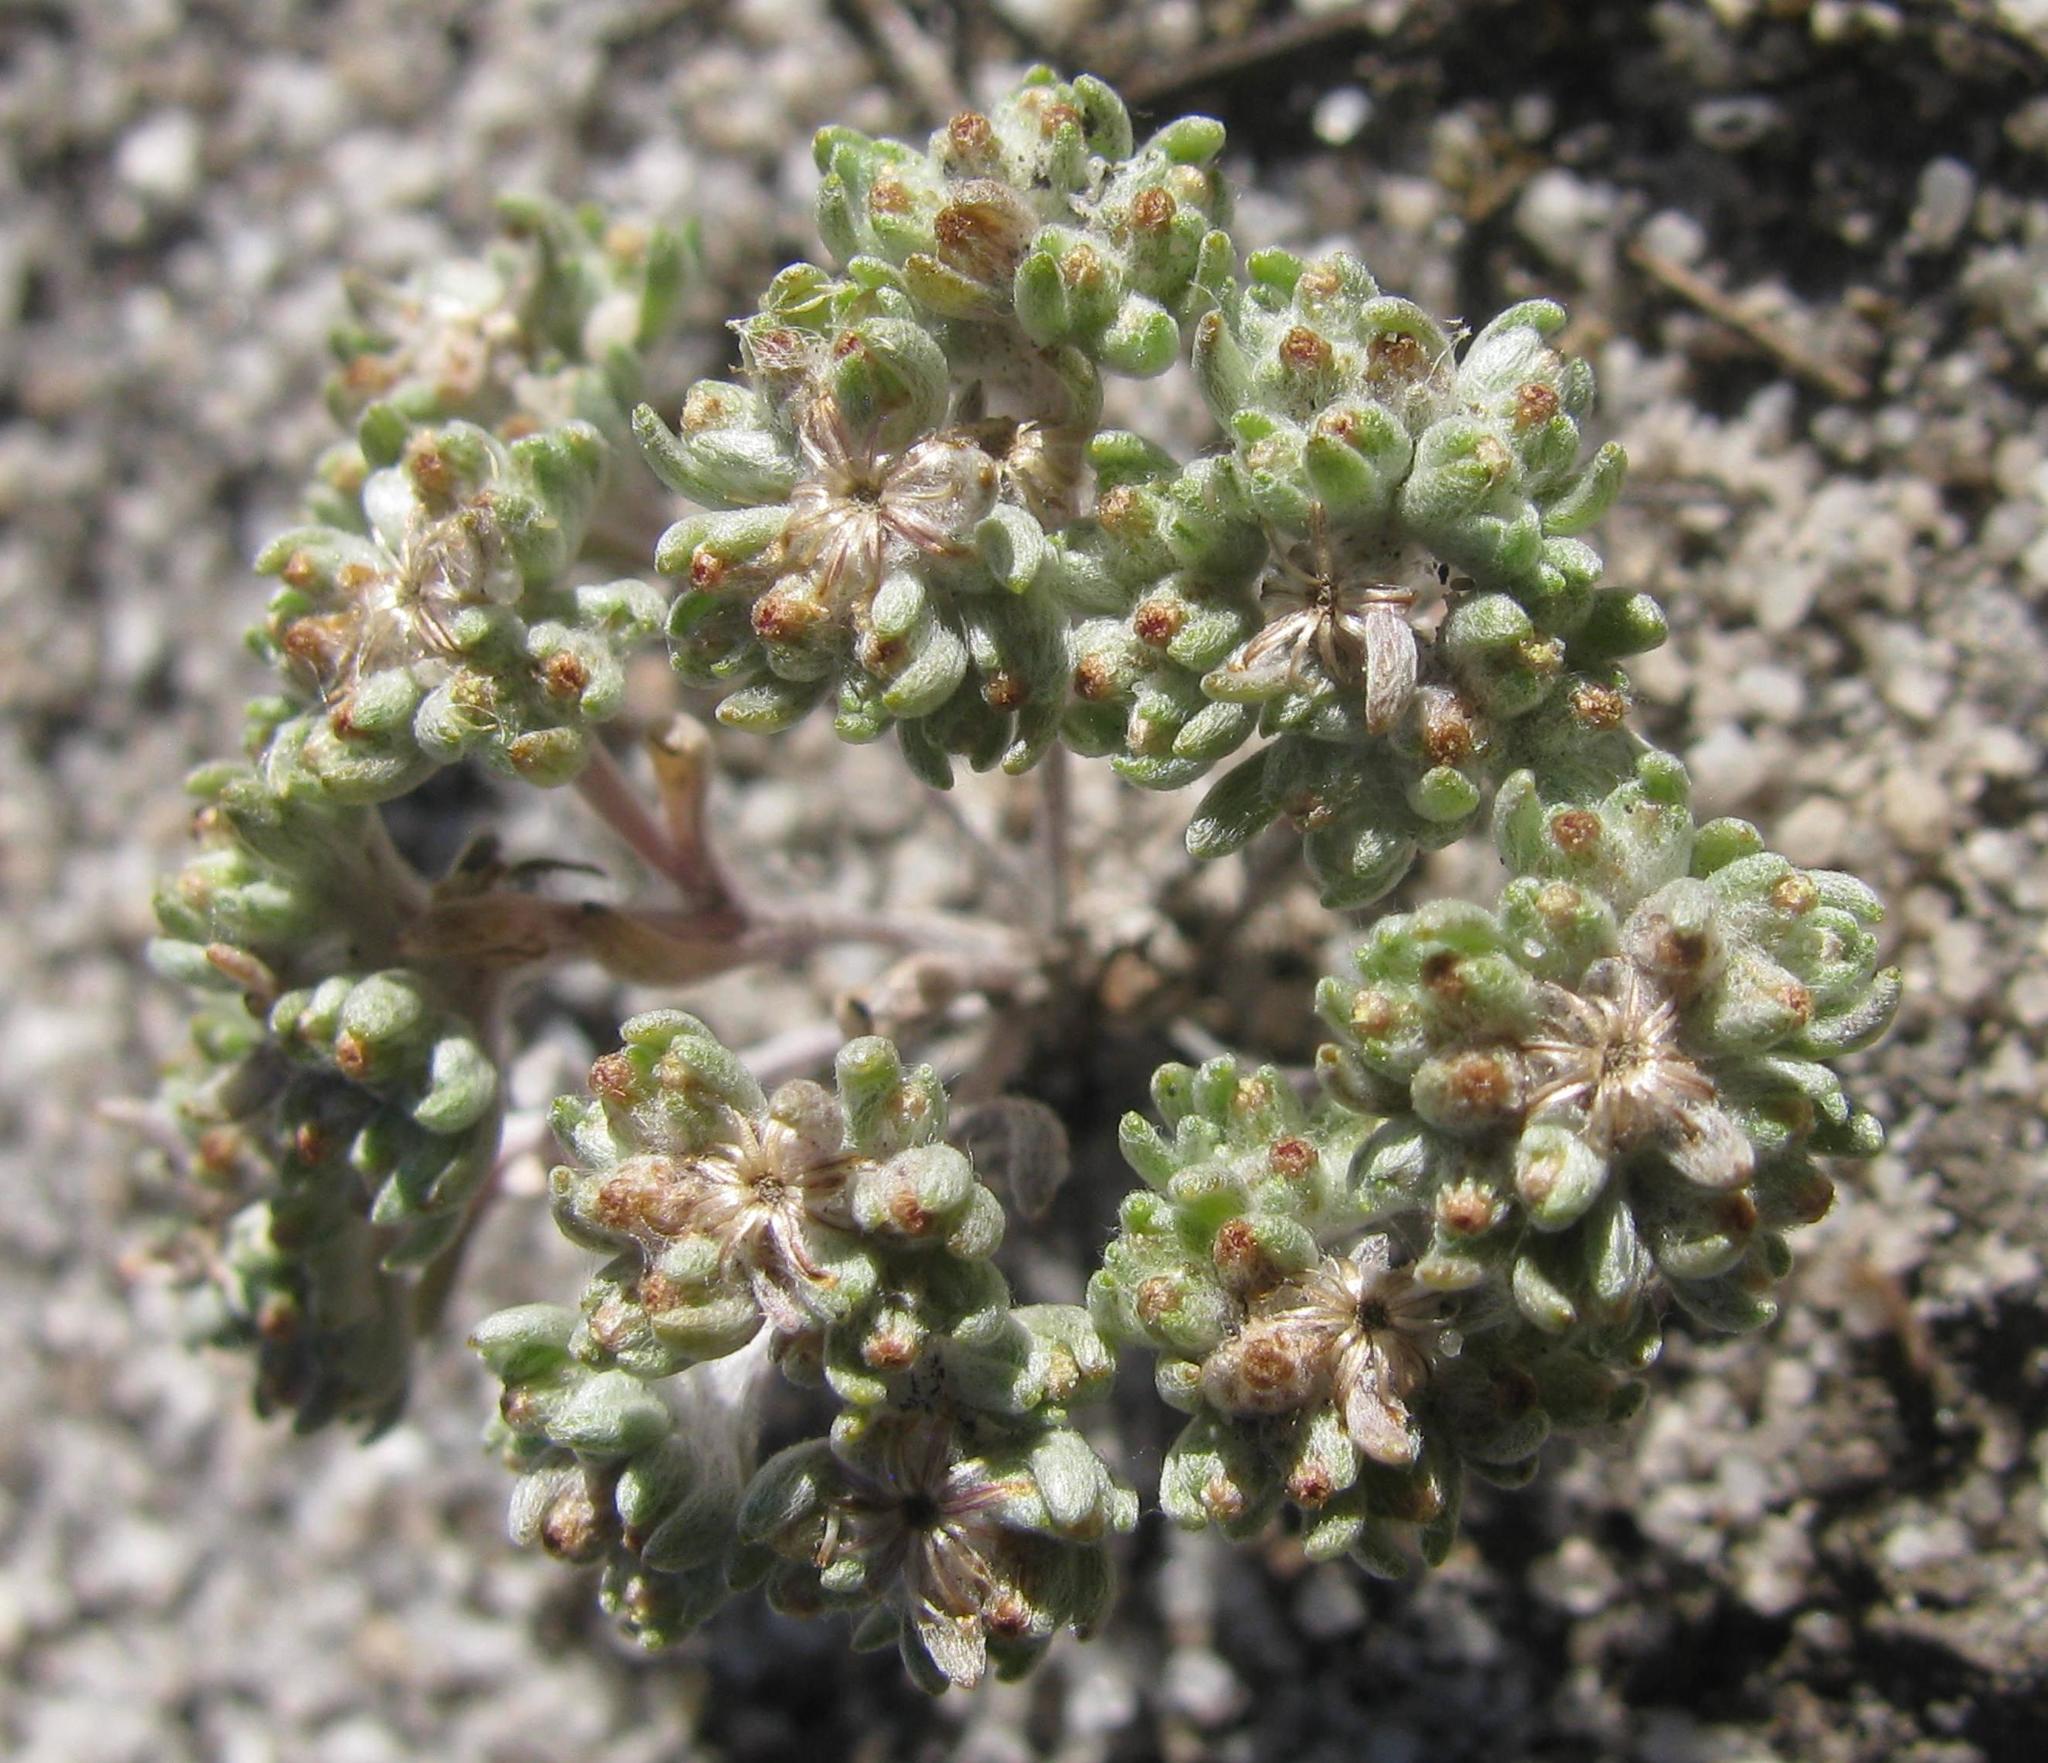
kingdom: Plantae
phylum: Tracheophyta
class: Magnoliopsida
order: Asterales
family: Asteraceae
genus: Lasiopogon
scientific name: Lasiopogon brachypterus
